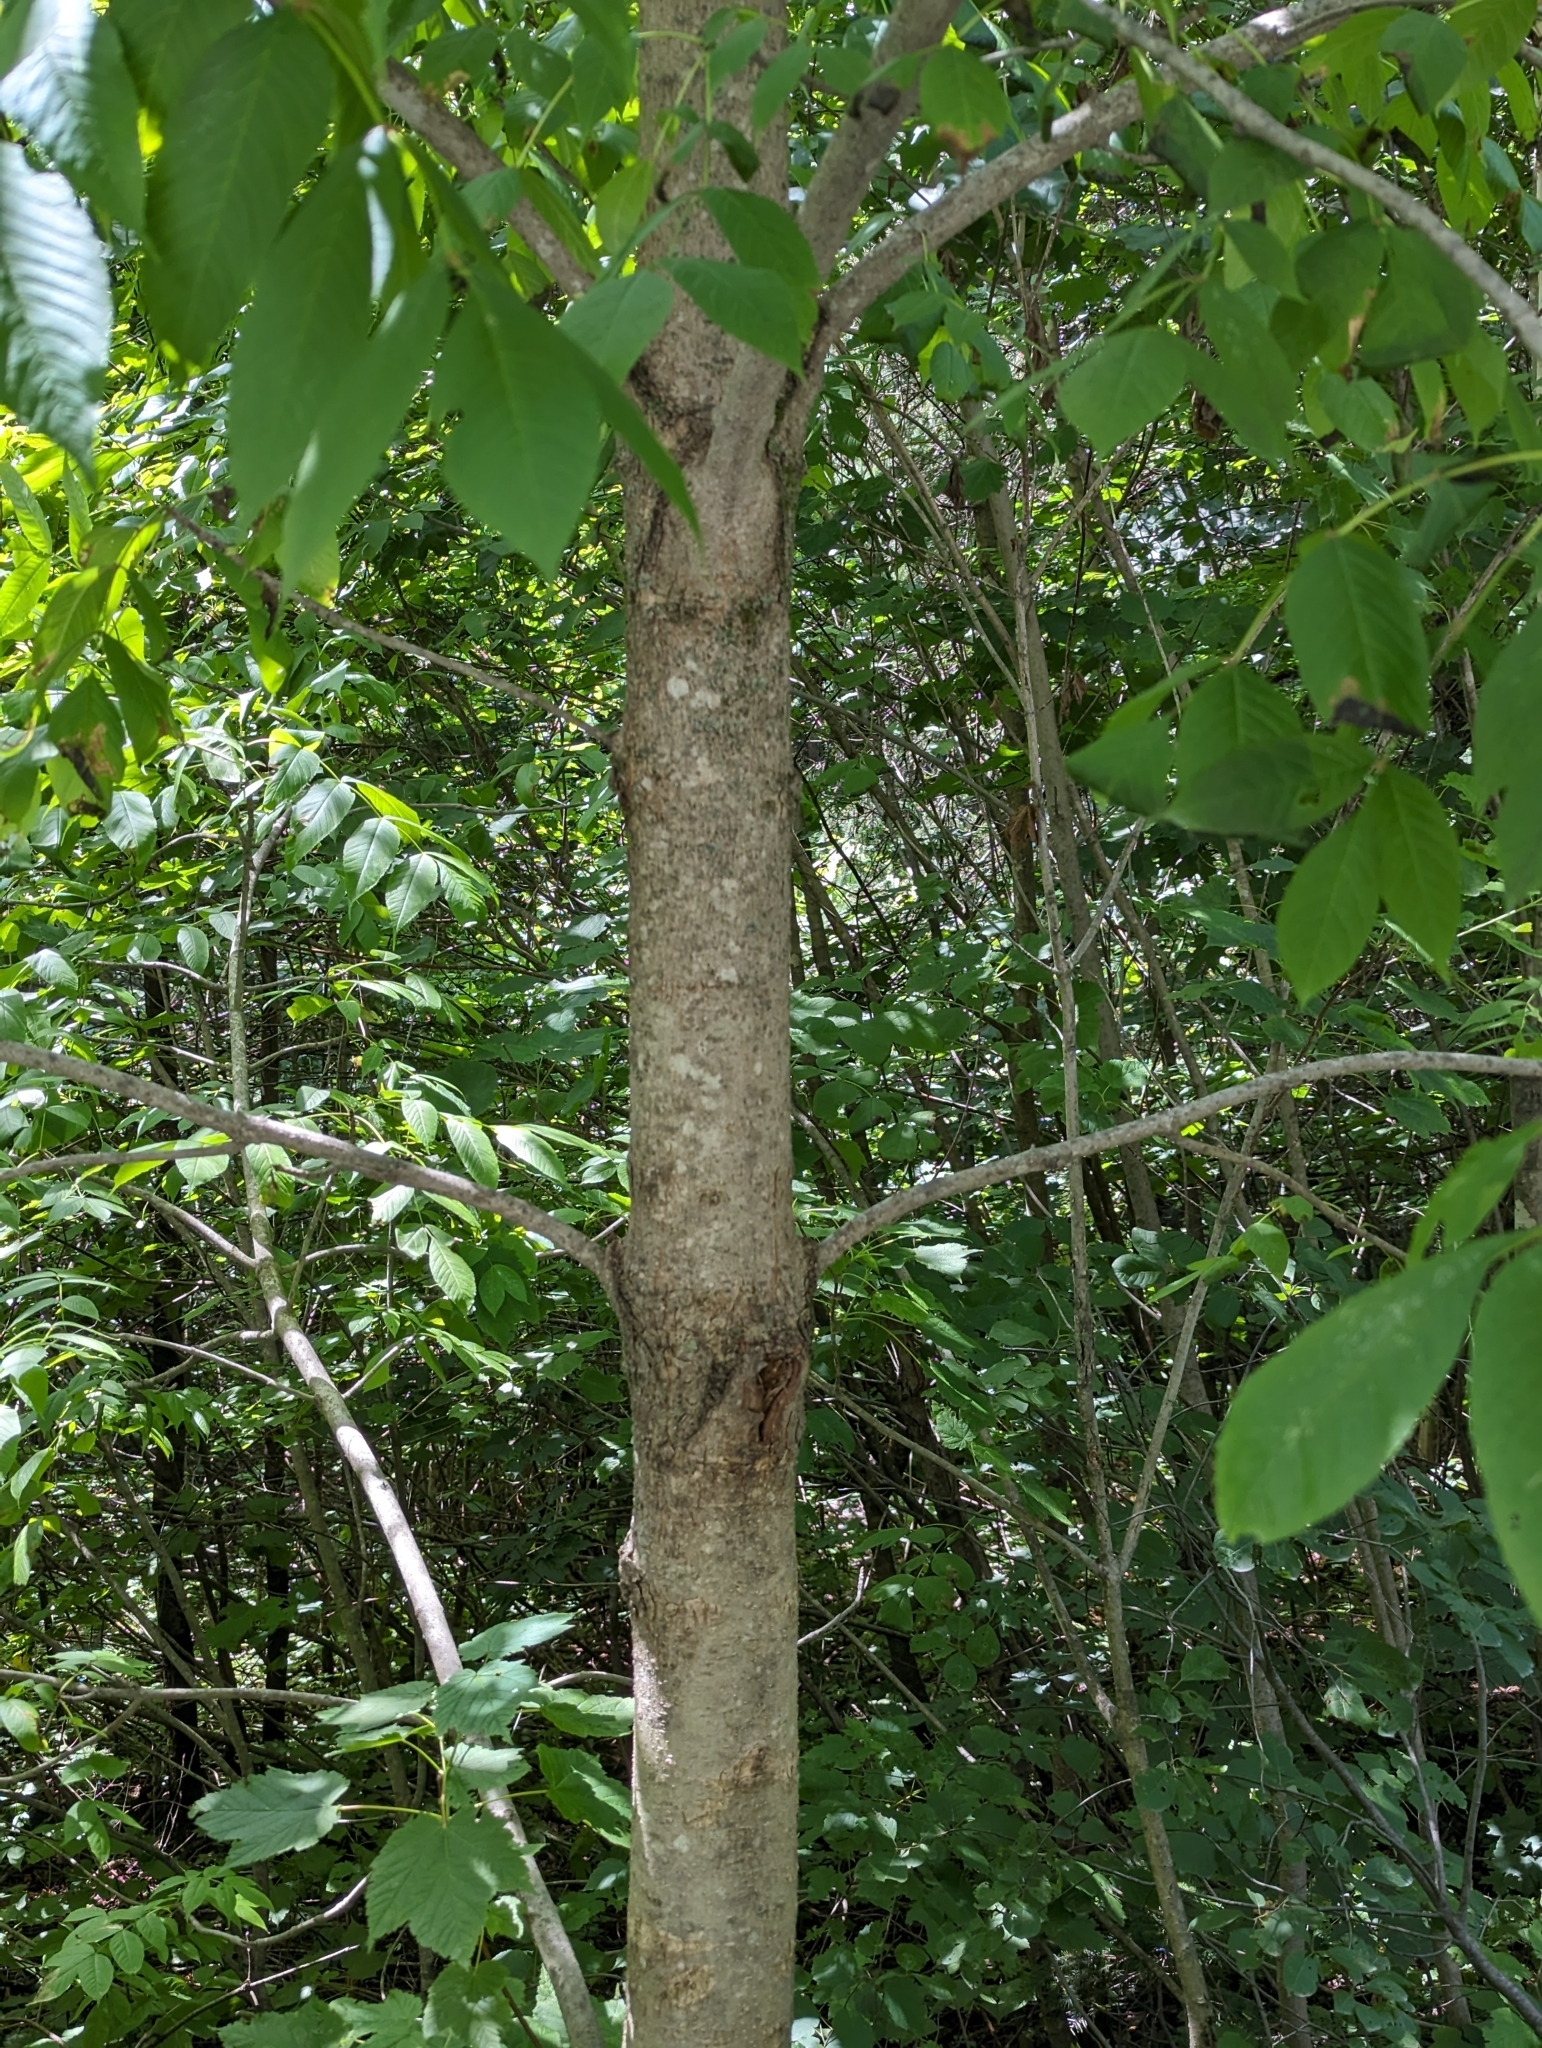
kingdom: Plantae
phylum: Tracheophyta
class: Magnoliopsida
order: Lamiales
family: Oleaceae
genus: Fraxinus
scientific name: Fraxinus nigra
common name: Black ash
